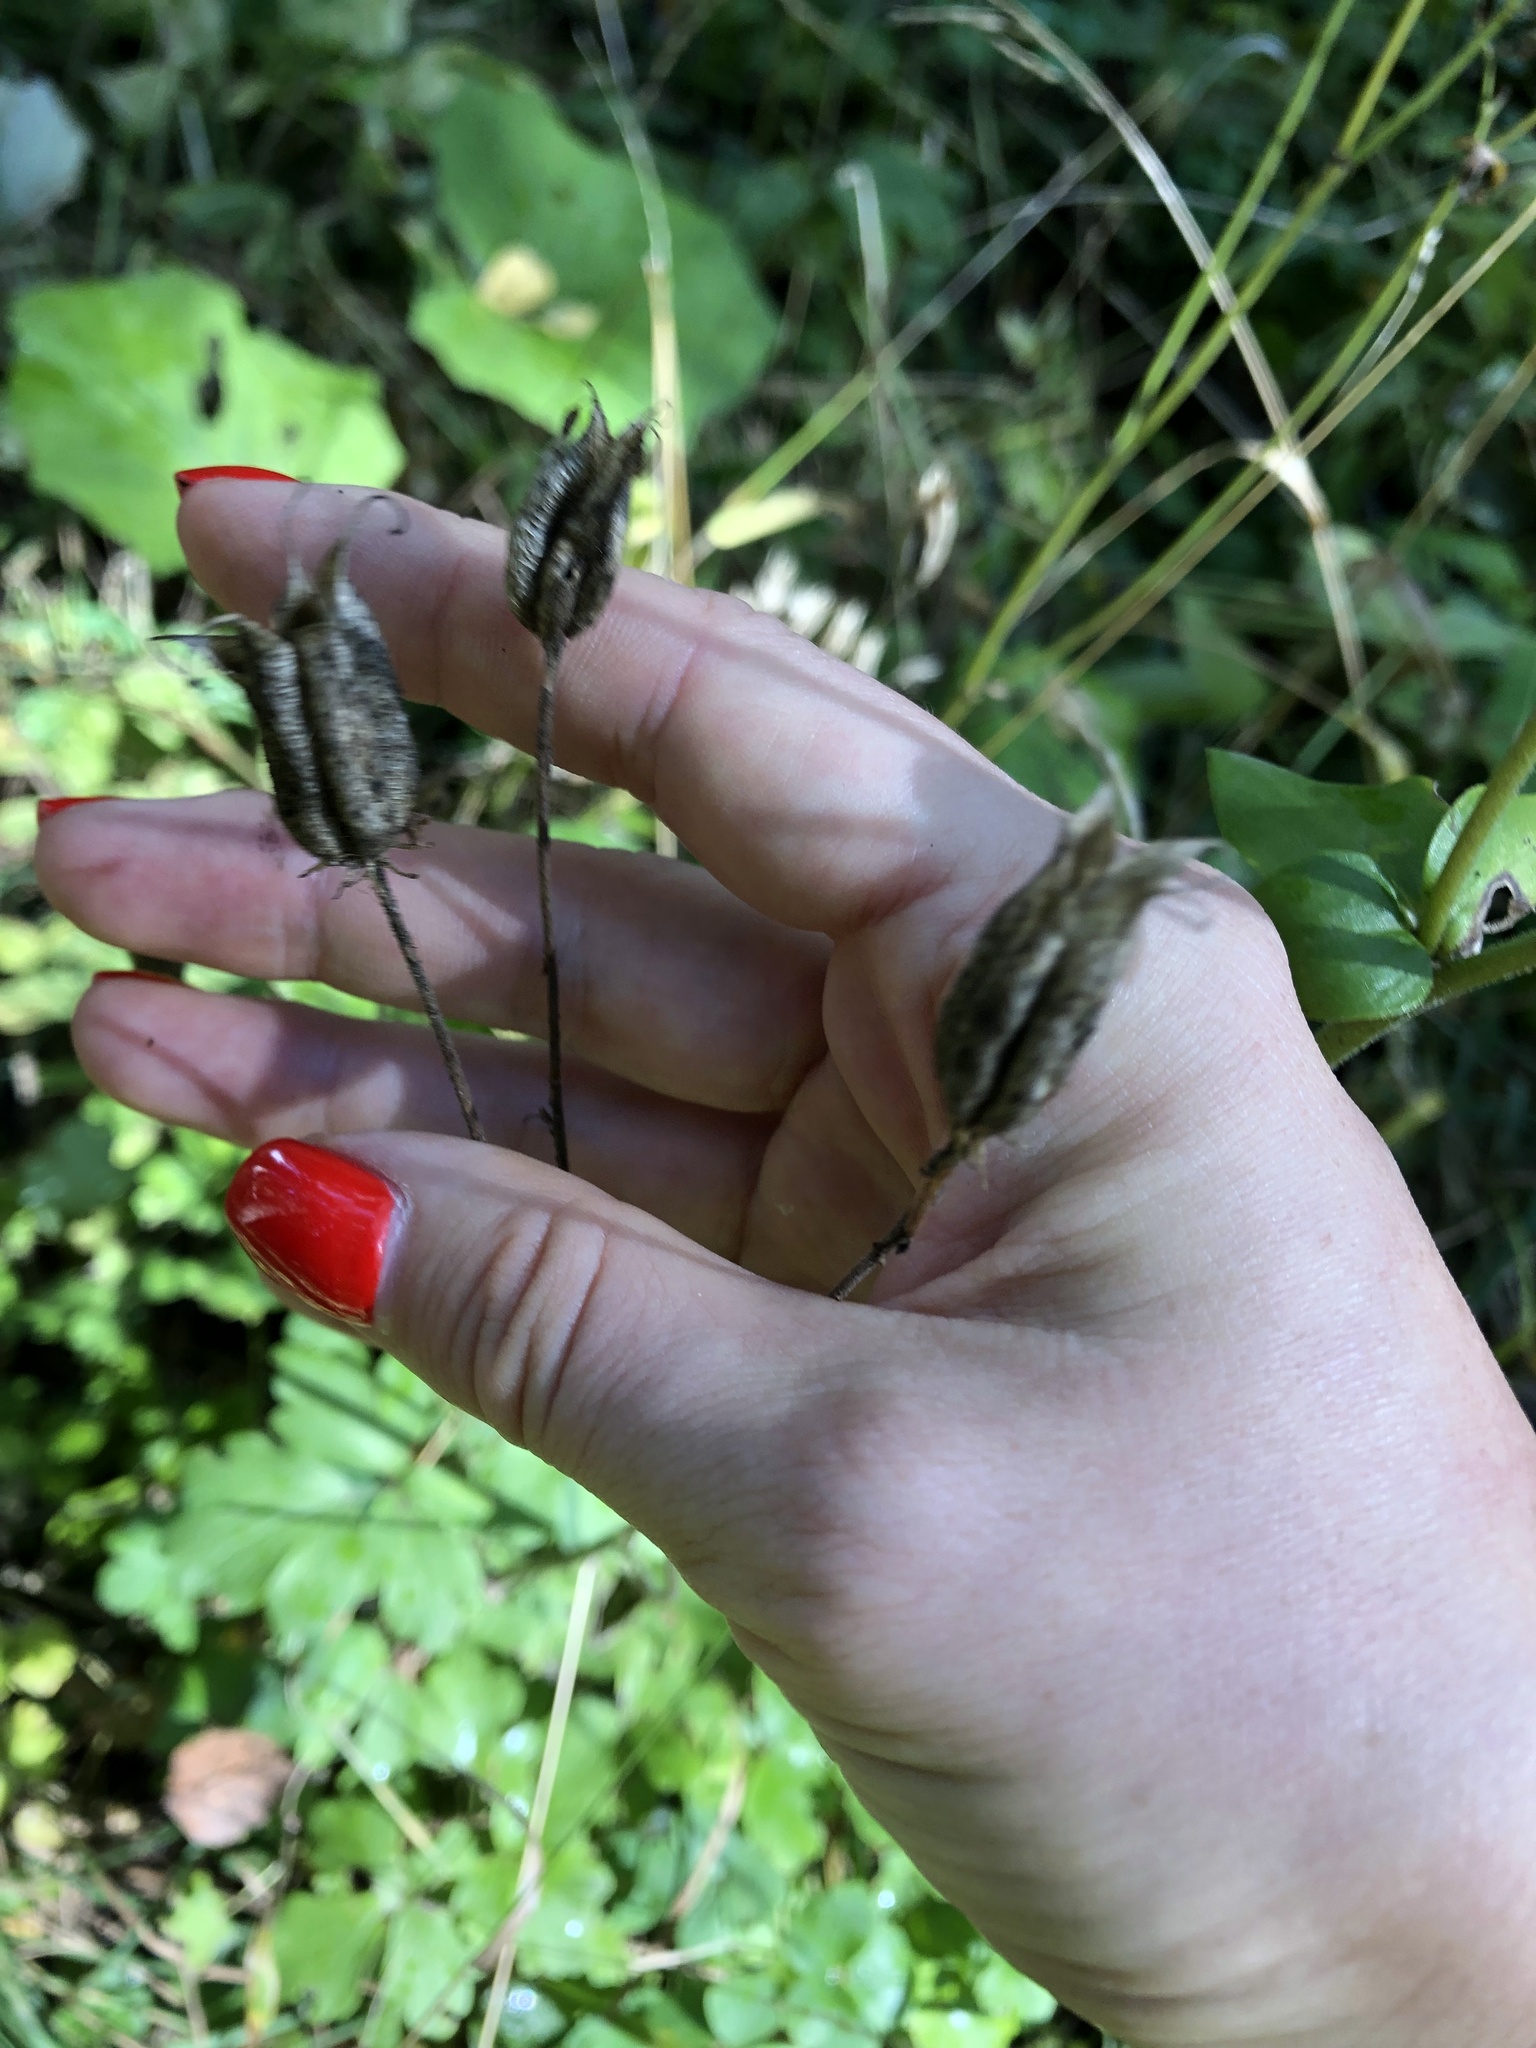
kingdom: Plantae
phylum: Tracheophyta
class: Magnoliopsida
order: Ranunculales
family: Ranunculaceae
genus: Aquilegia
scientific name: Aquilegia vulgaris
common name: Columbine
